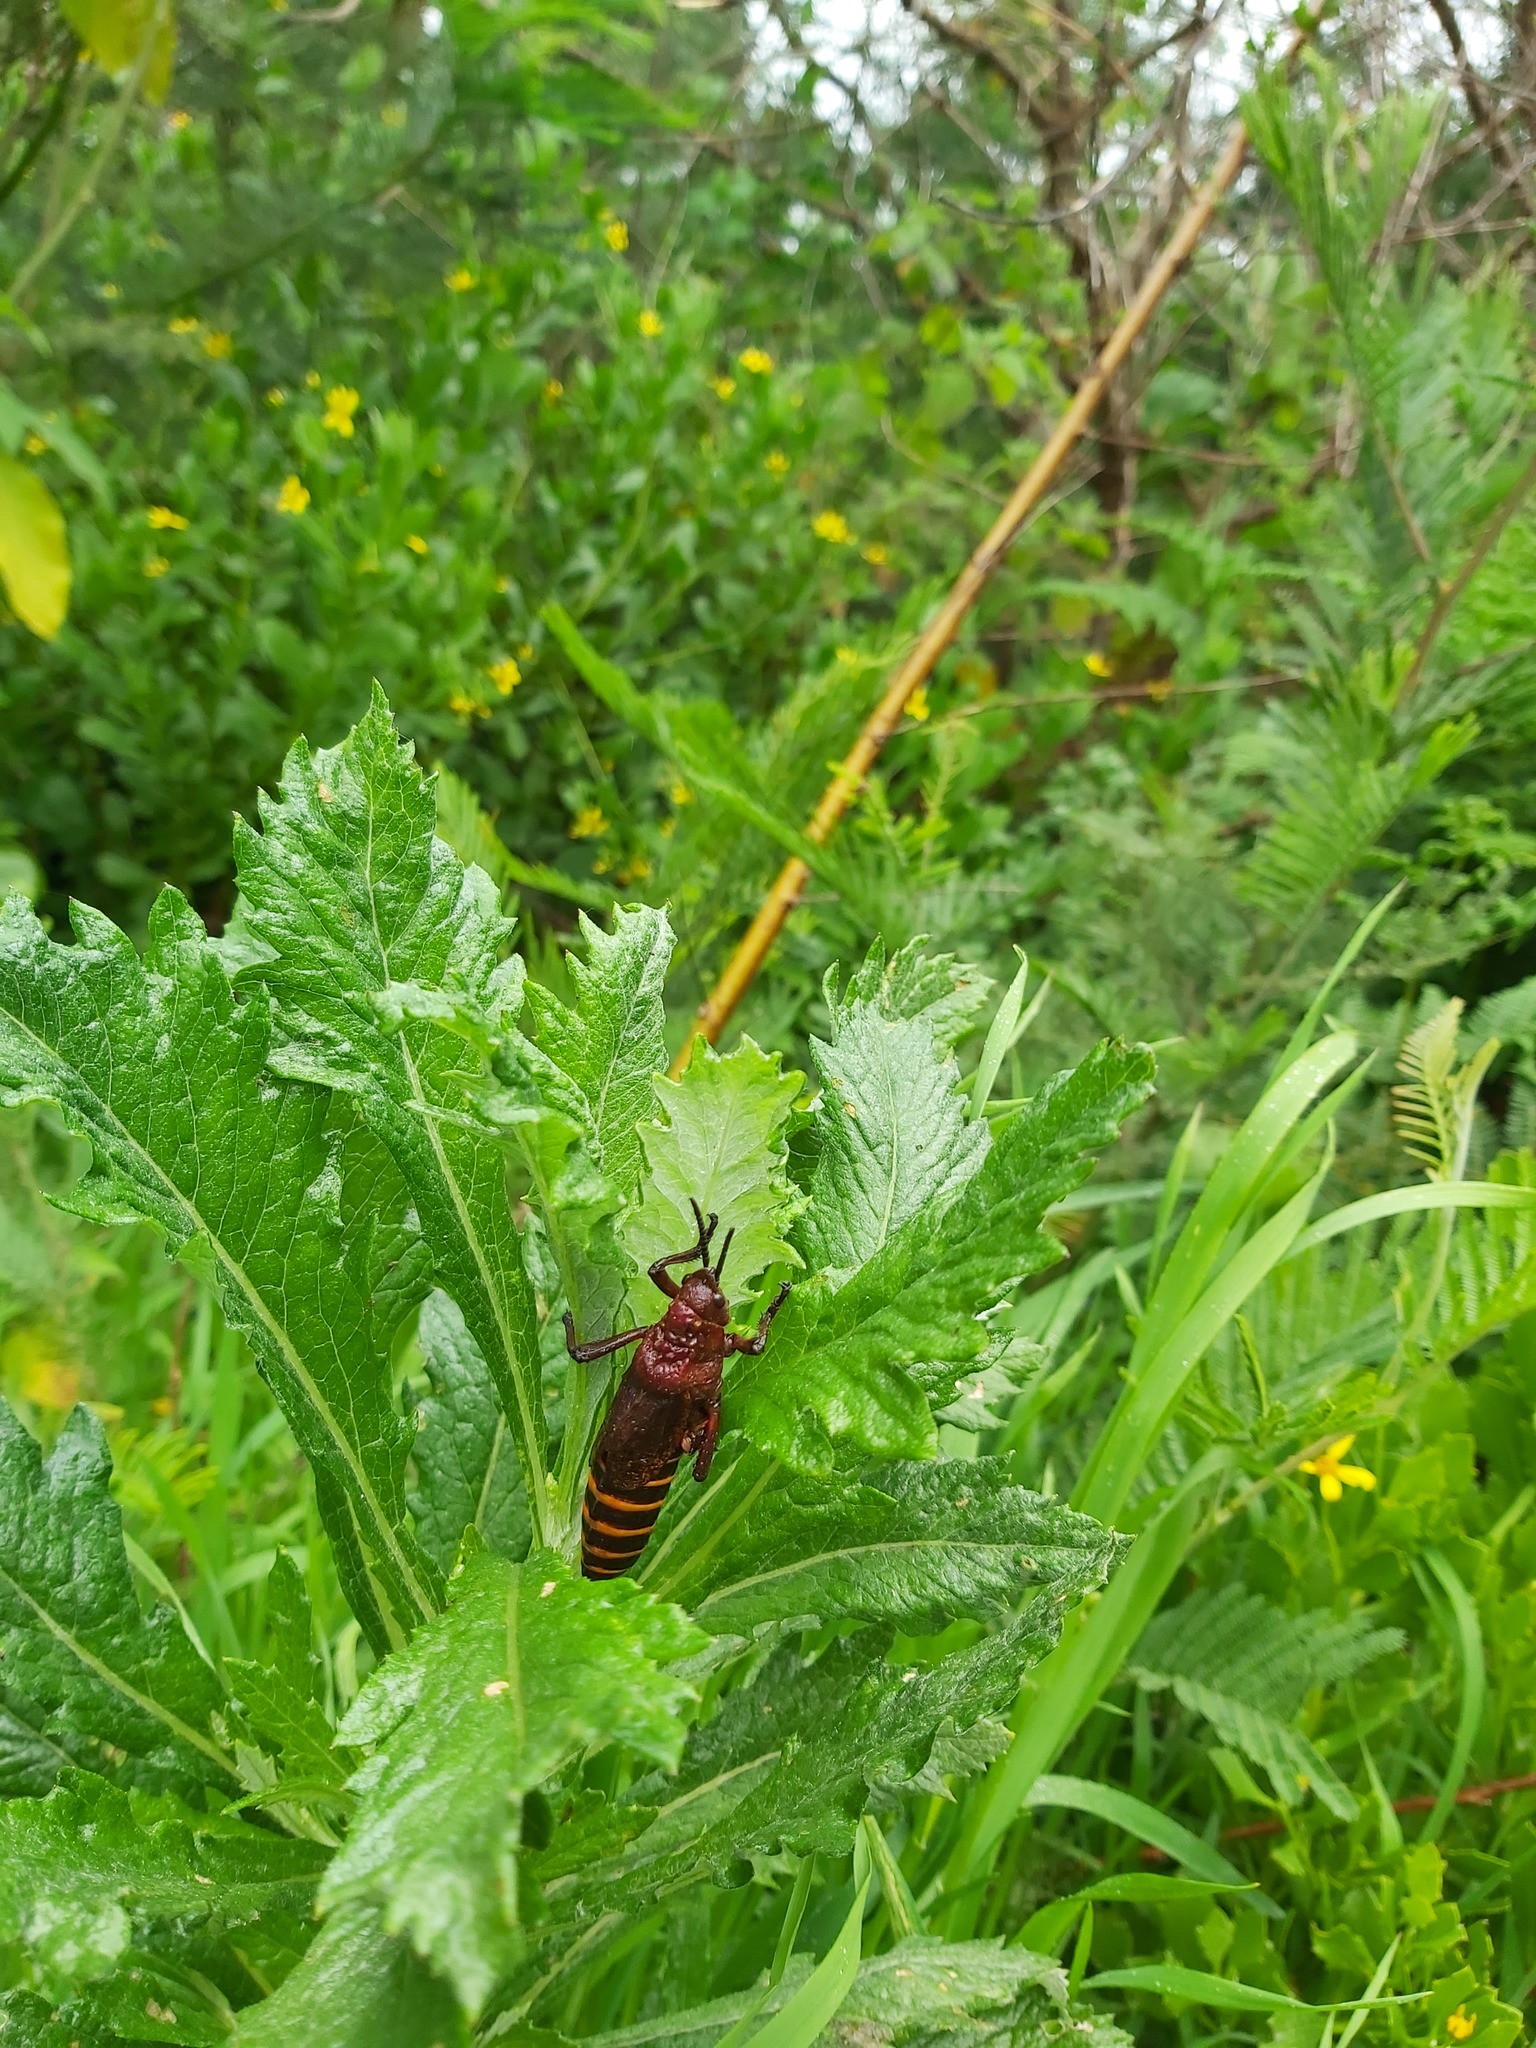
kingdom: Animalia
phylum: Arthropoda
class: Insecta
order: Orthoptera
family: Pyrgomorphidae
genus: Dictyophorus
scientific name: Dictyophorus spumans
